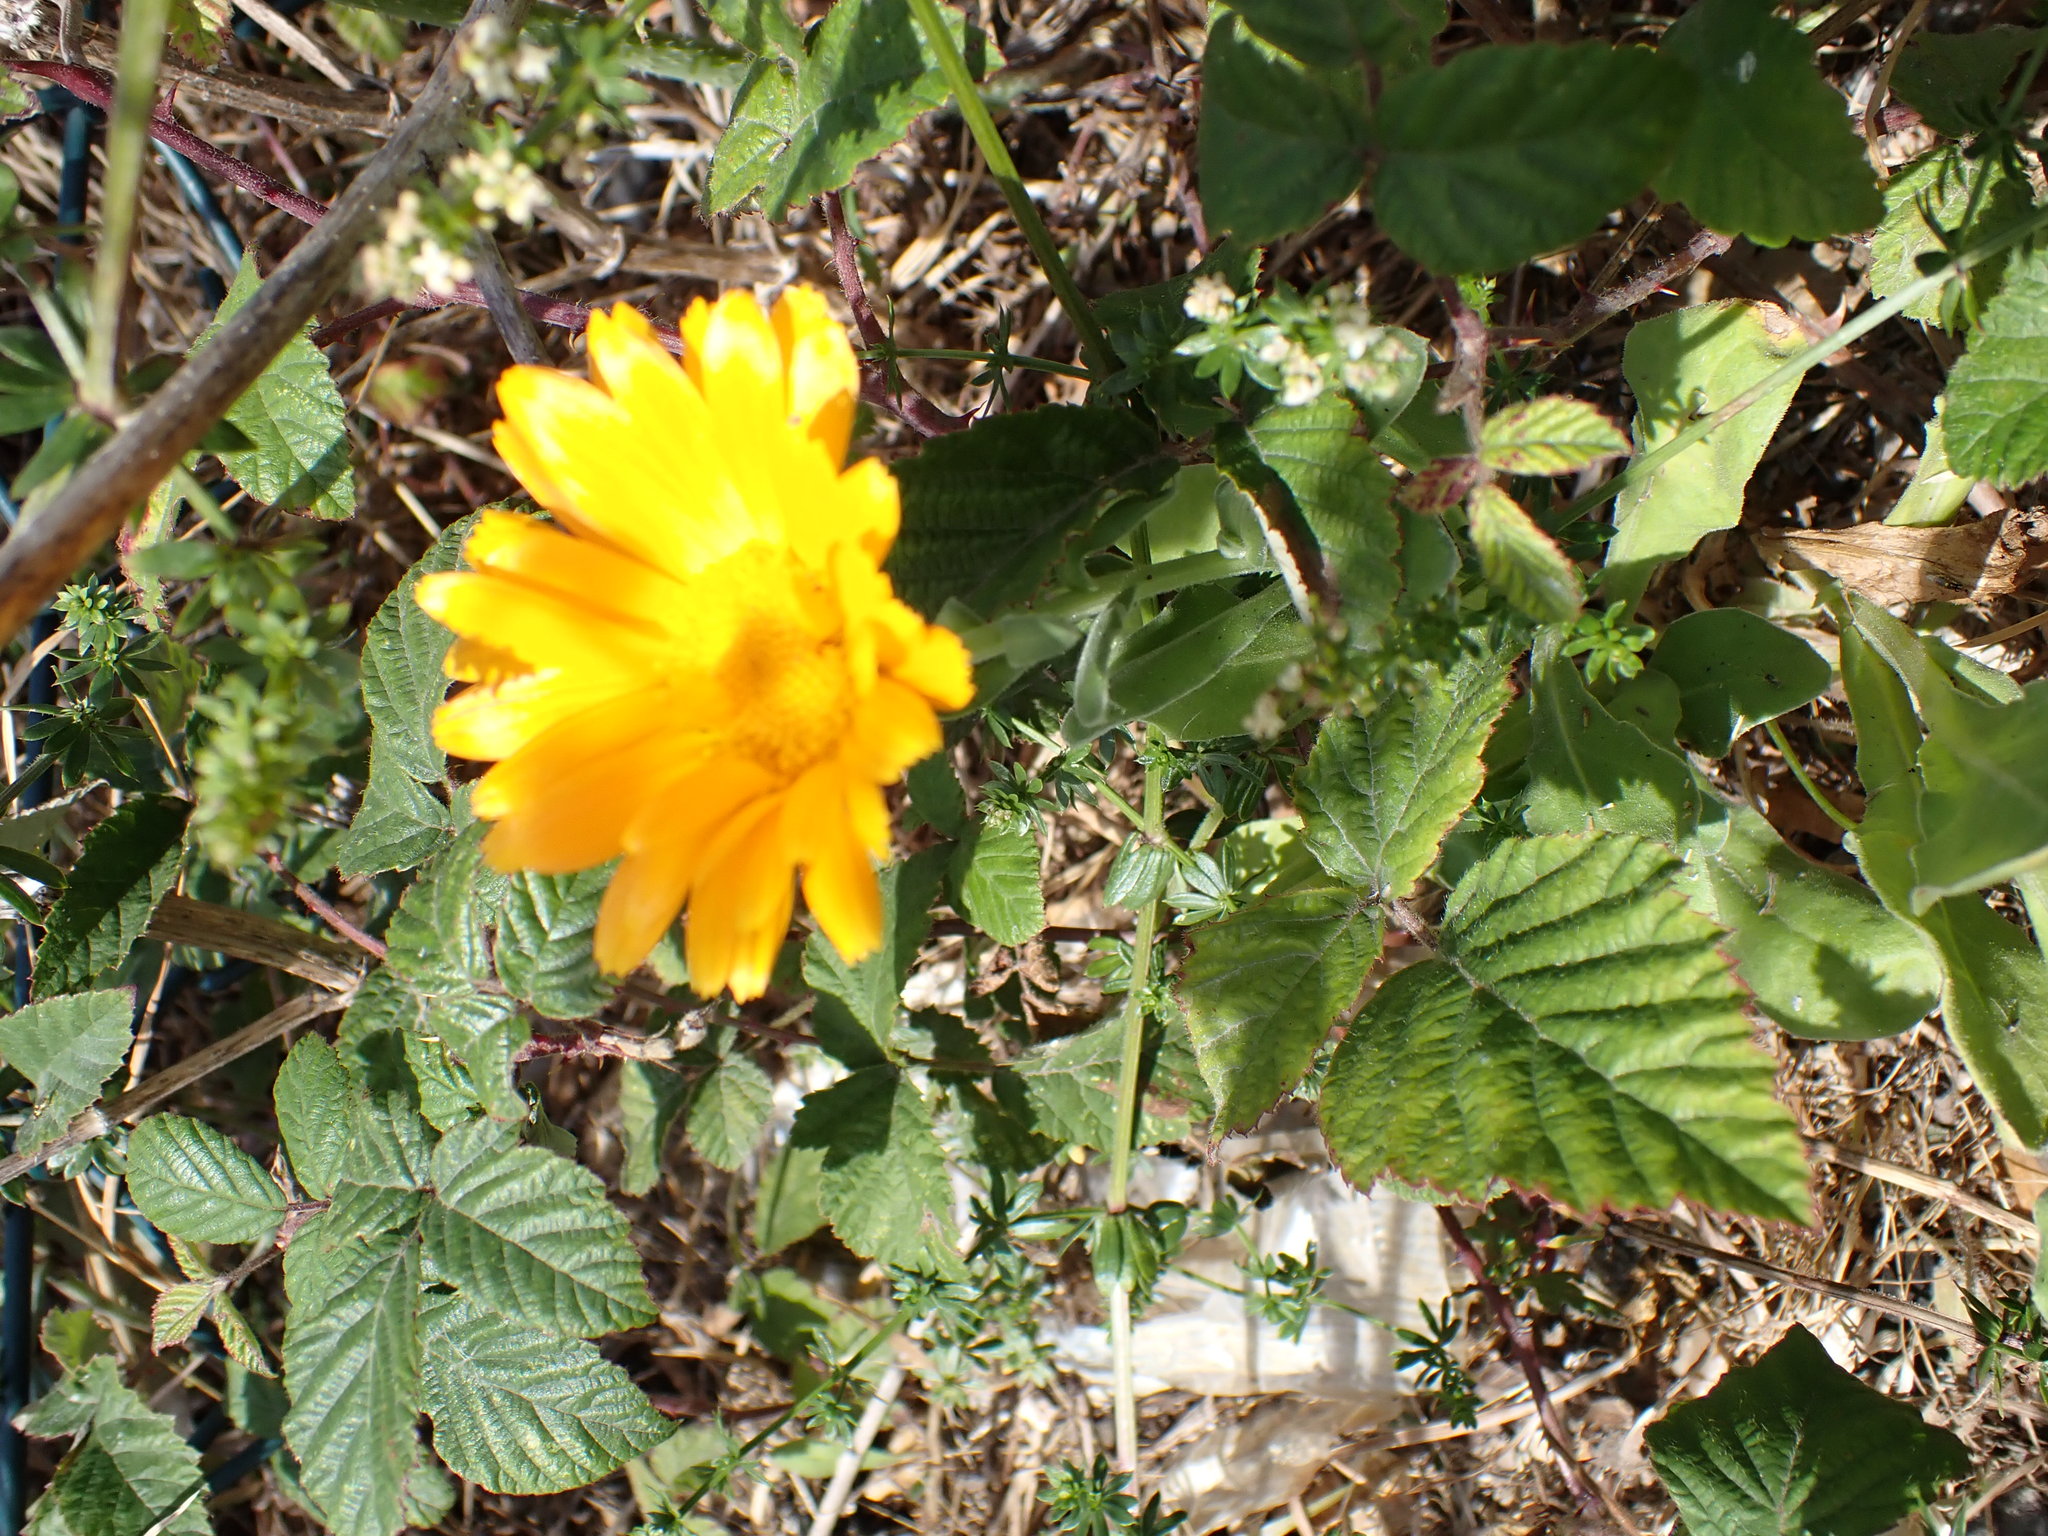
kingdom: Plantae
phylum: Tracheophyta
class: Magnoliopsida
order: Asterales
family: Asteraceae
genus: Calendula
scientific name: Calendula officinalis
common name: Pot marigold
